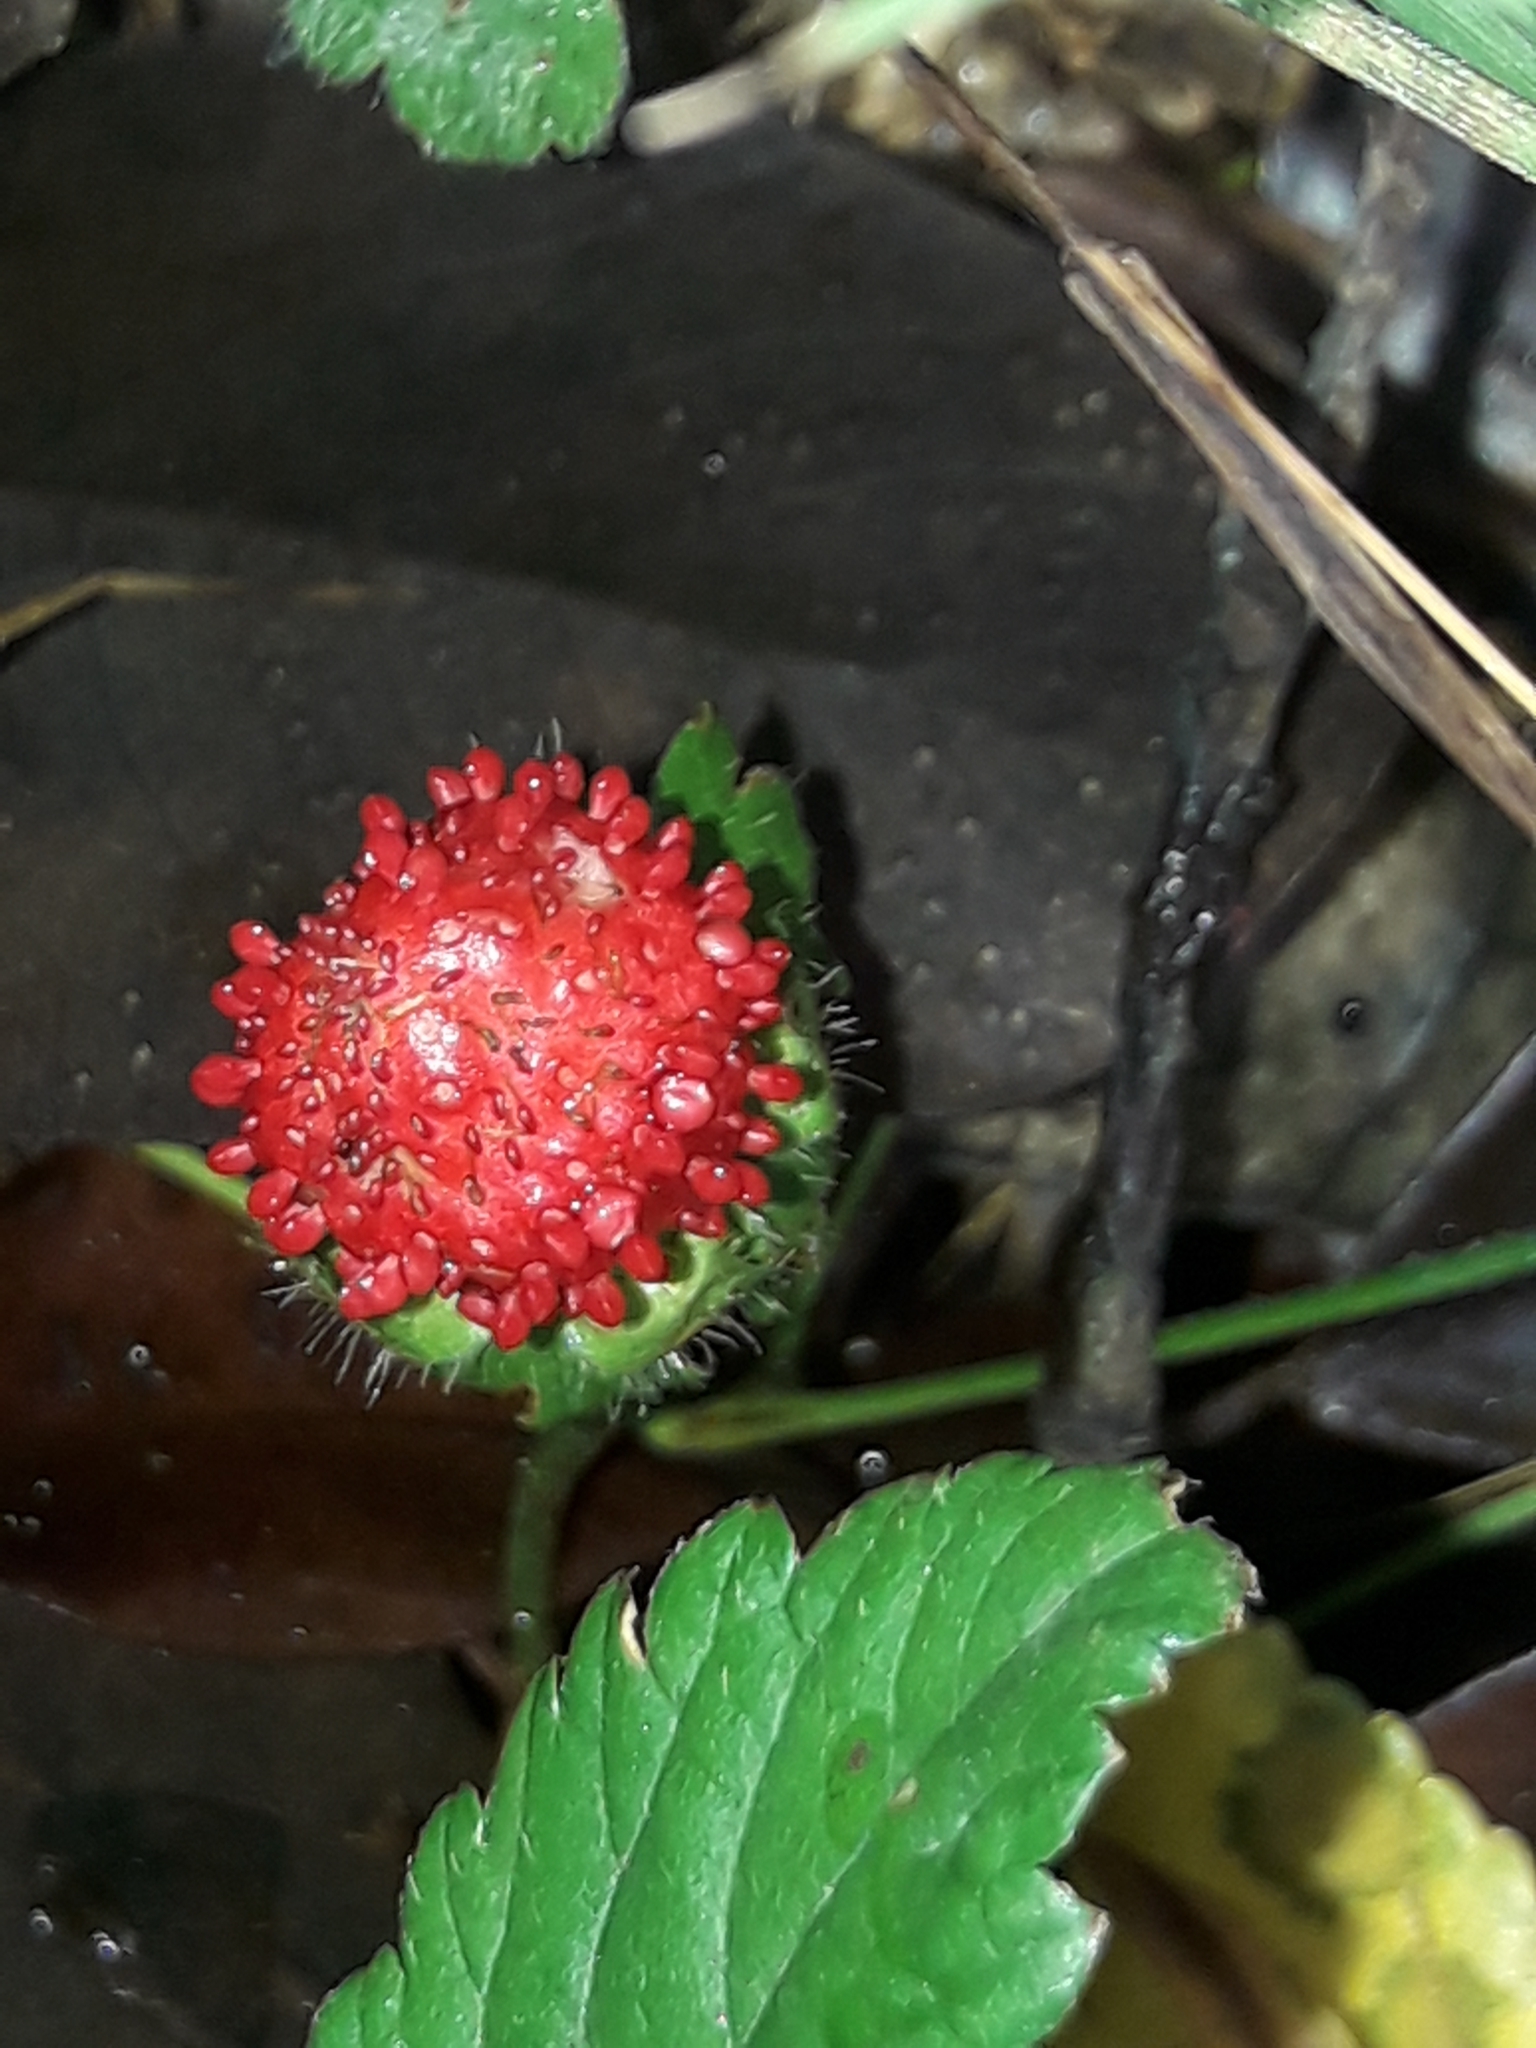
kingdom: Plantae
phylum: Tracheophyta
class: Magnoliopsida
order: Rosales
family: Rosaceae
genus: Potentilla
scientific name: Potentilla indica
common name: Yellow-flowered strawberry
